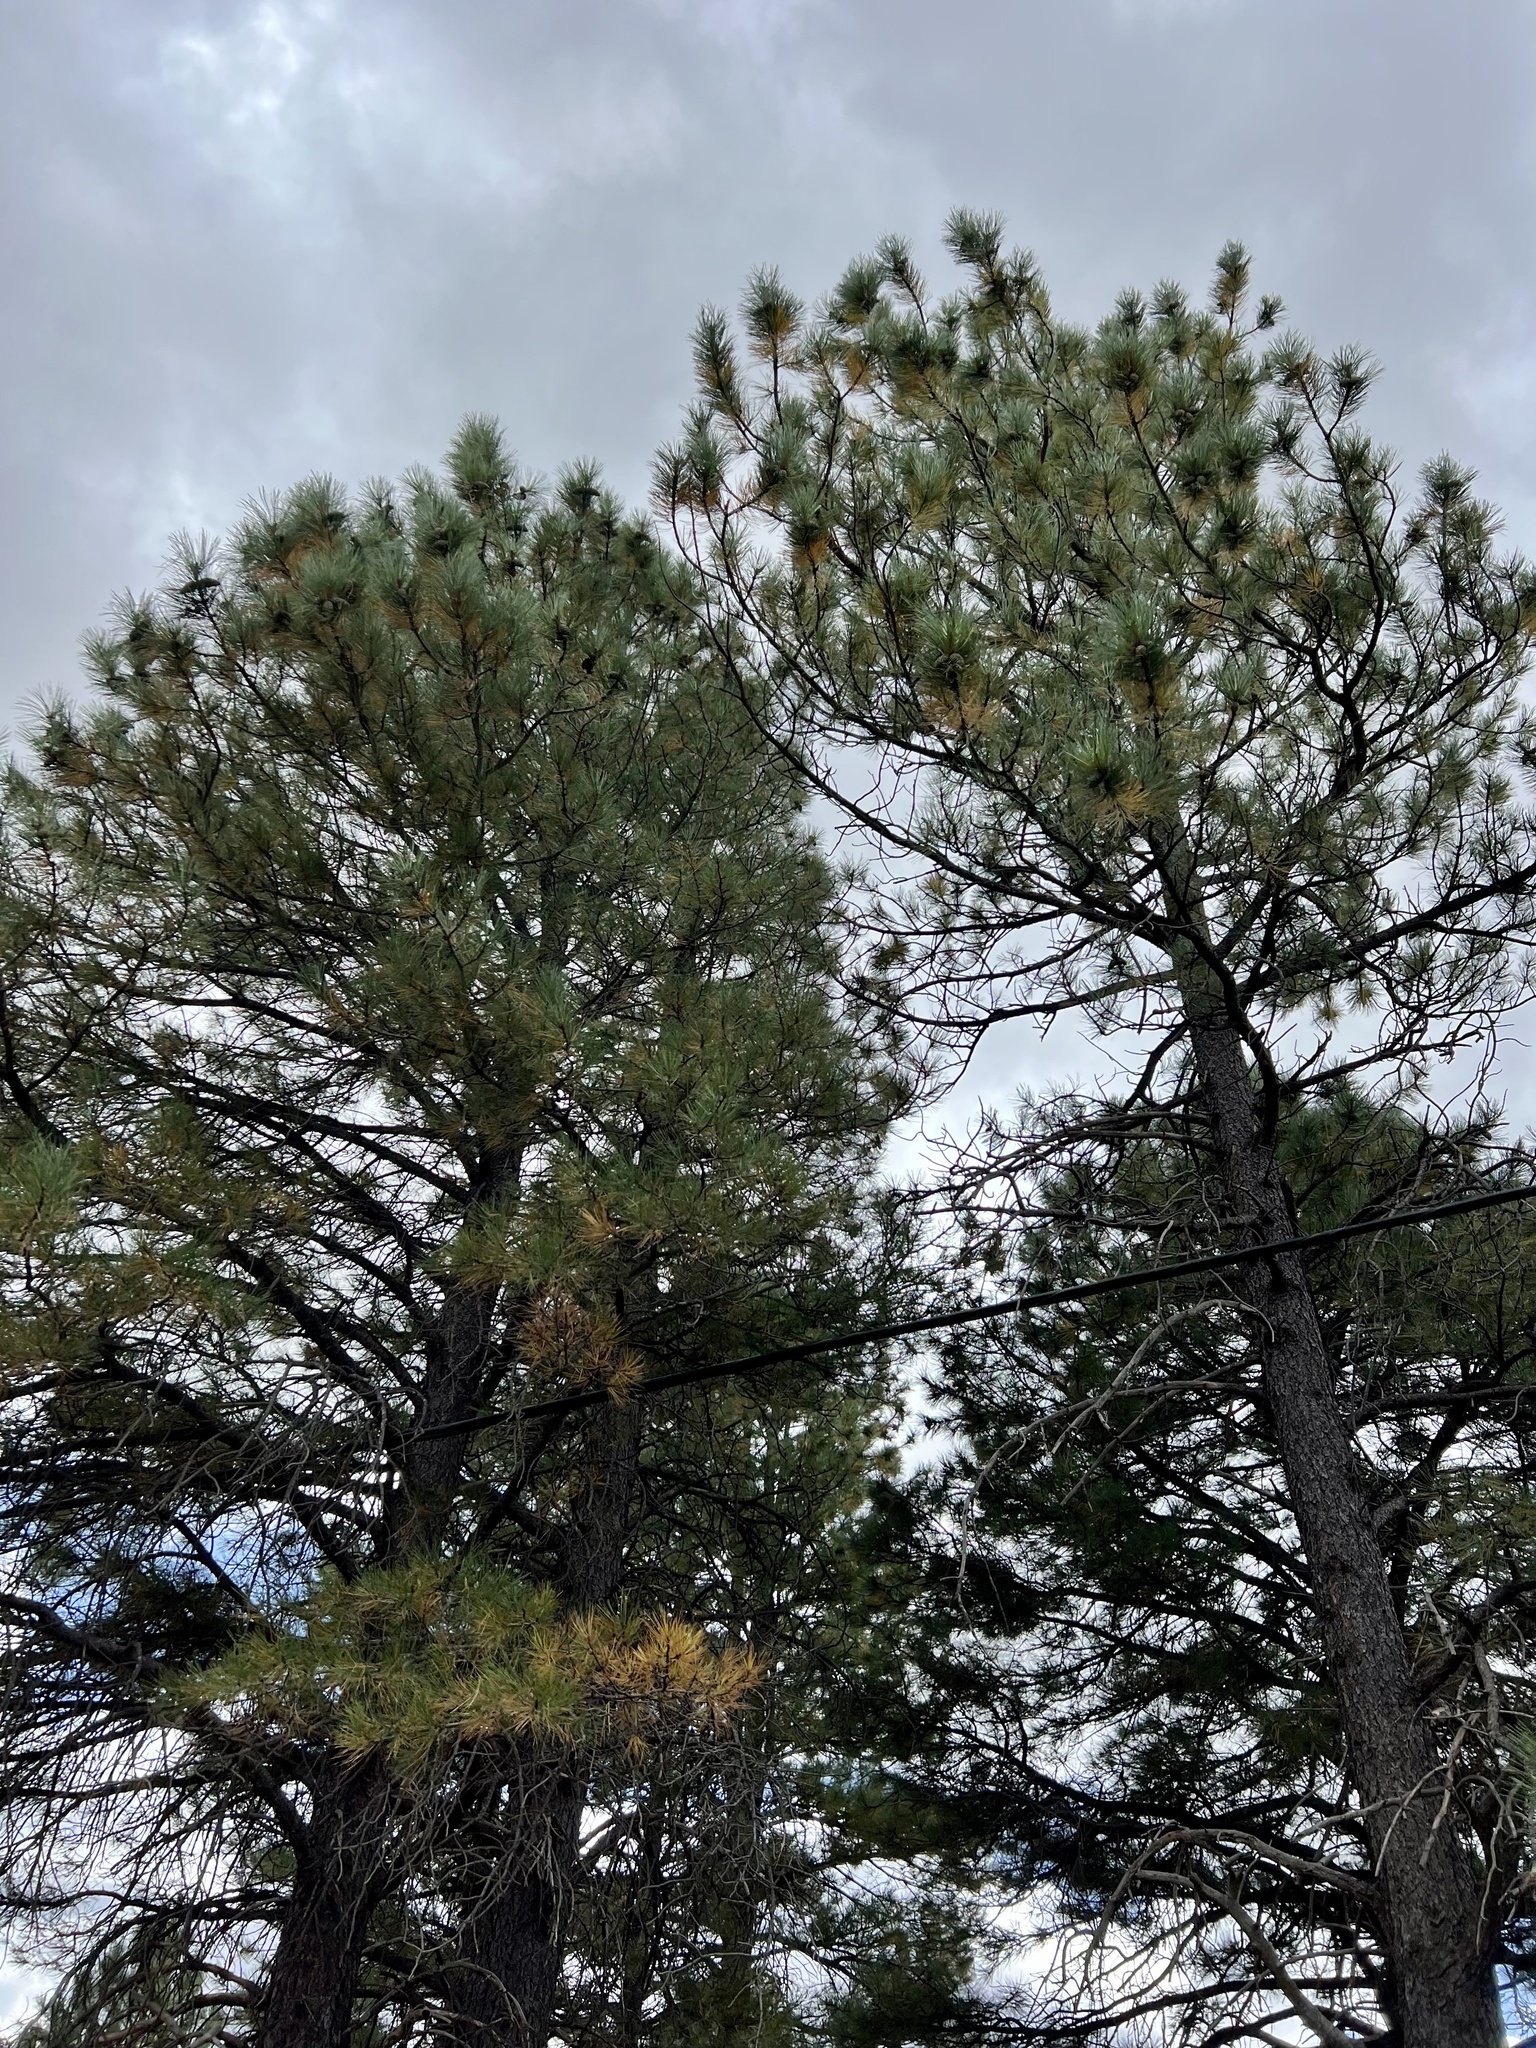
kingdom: Plantae
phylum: Tracheophyta
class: Pinopsida
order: Pinales
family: Pinaceae
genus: Pinus
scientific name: Pinus ponderosa
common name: Western yellow-pine
